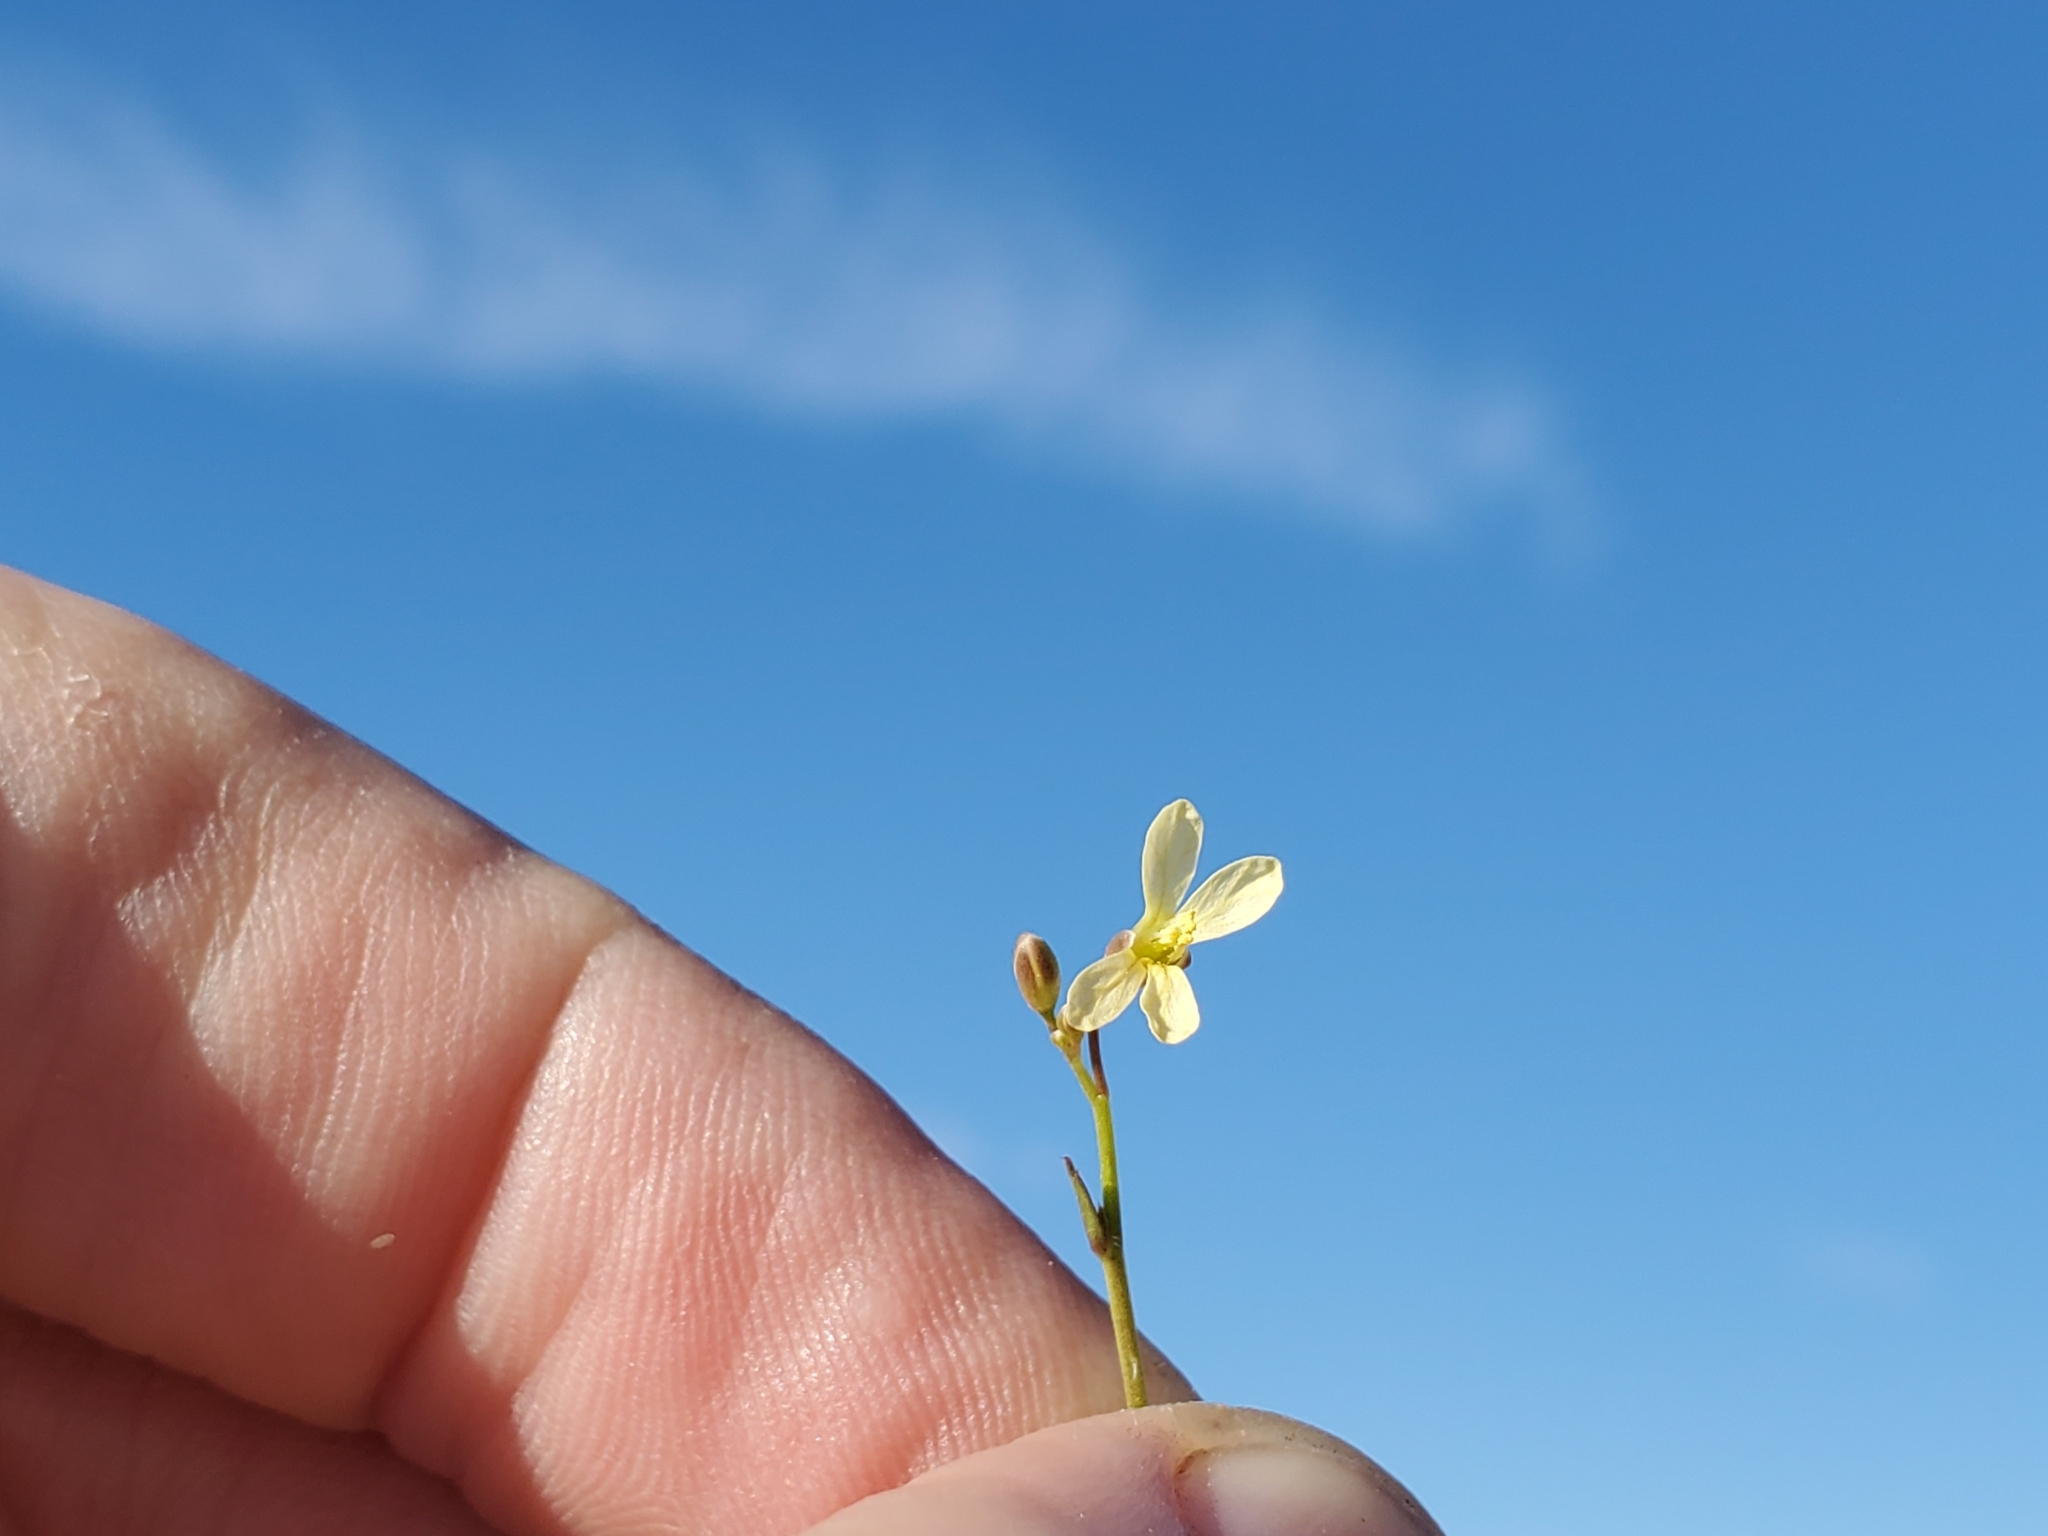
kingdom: Plantae
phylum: Tracheophyta
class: Magnoliopsida
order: Brassicales
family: Brassicaceae
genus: Brassica
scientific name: Brassica tournefortii
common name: Pale cabbage
